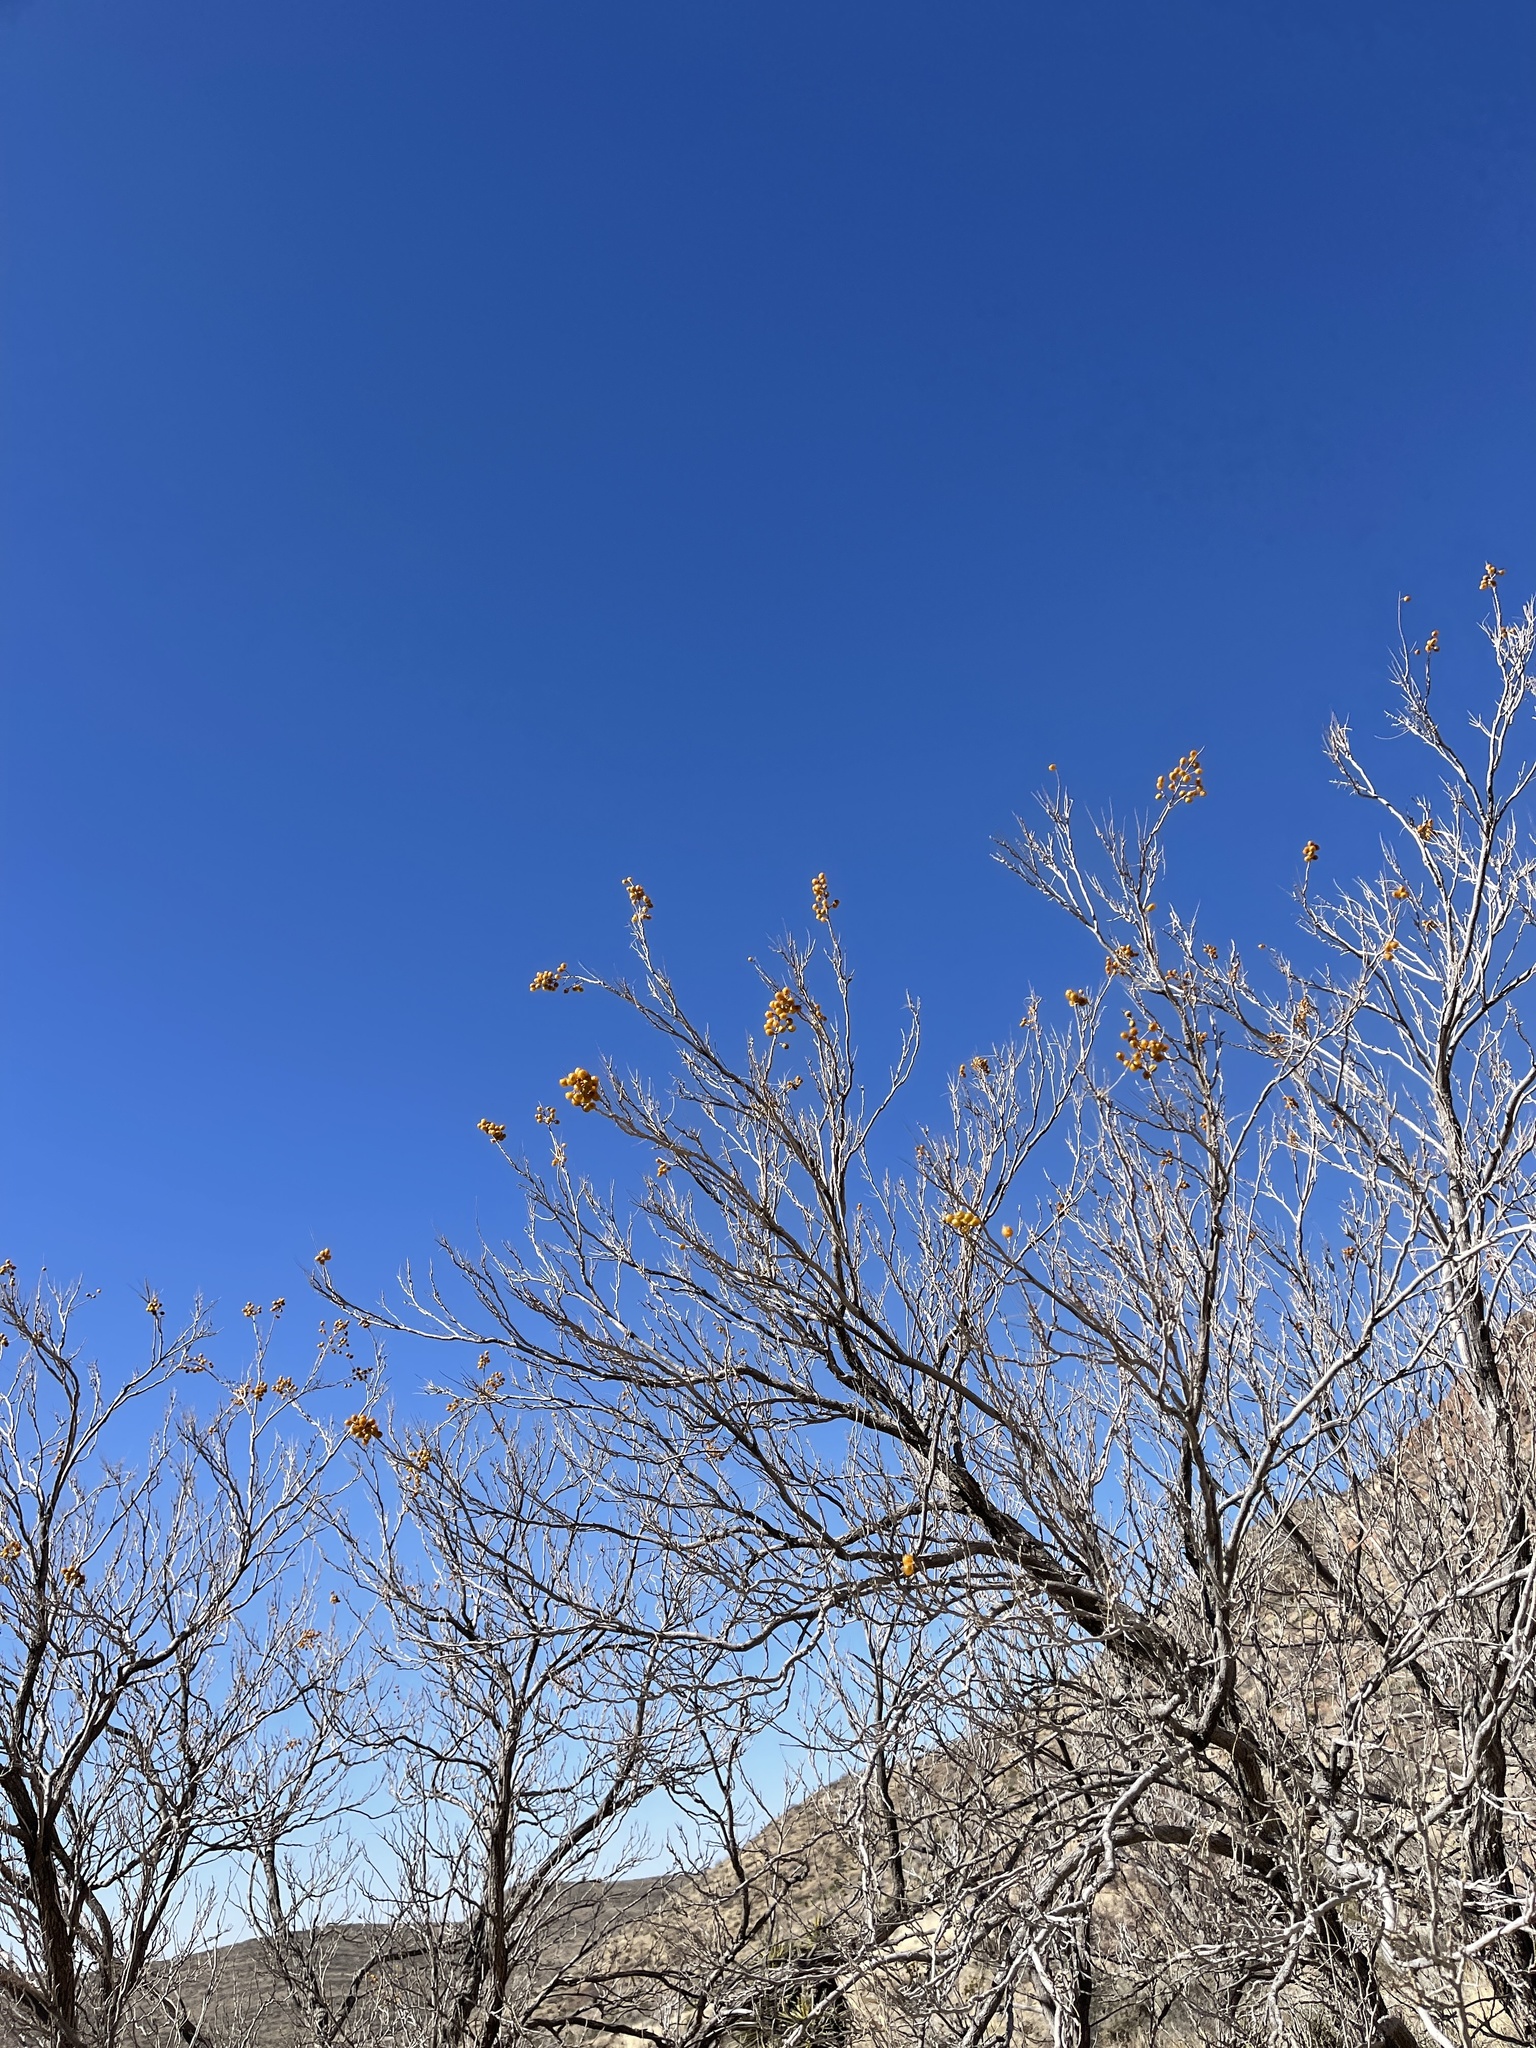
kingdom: Plantae
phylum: Tracheophyta
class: Magnoliopsida
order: Sapindales
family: Sapindaceae
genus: Sapindus
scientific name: Sapindus drummondii
